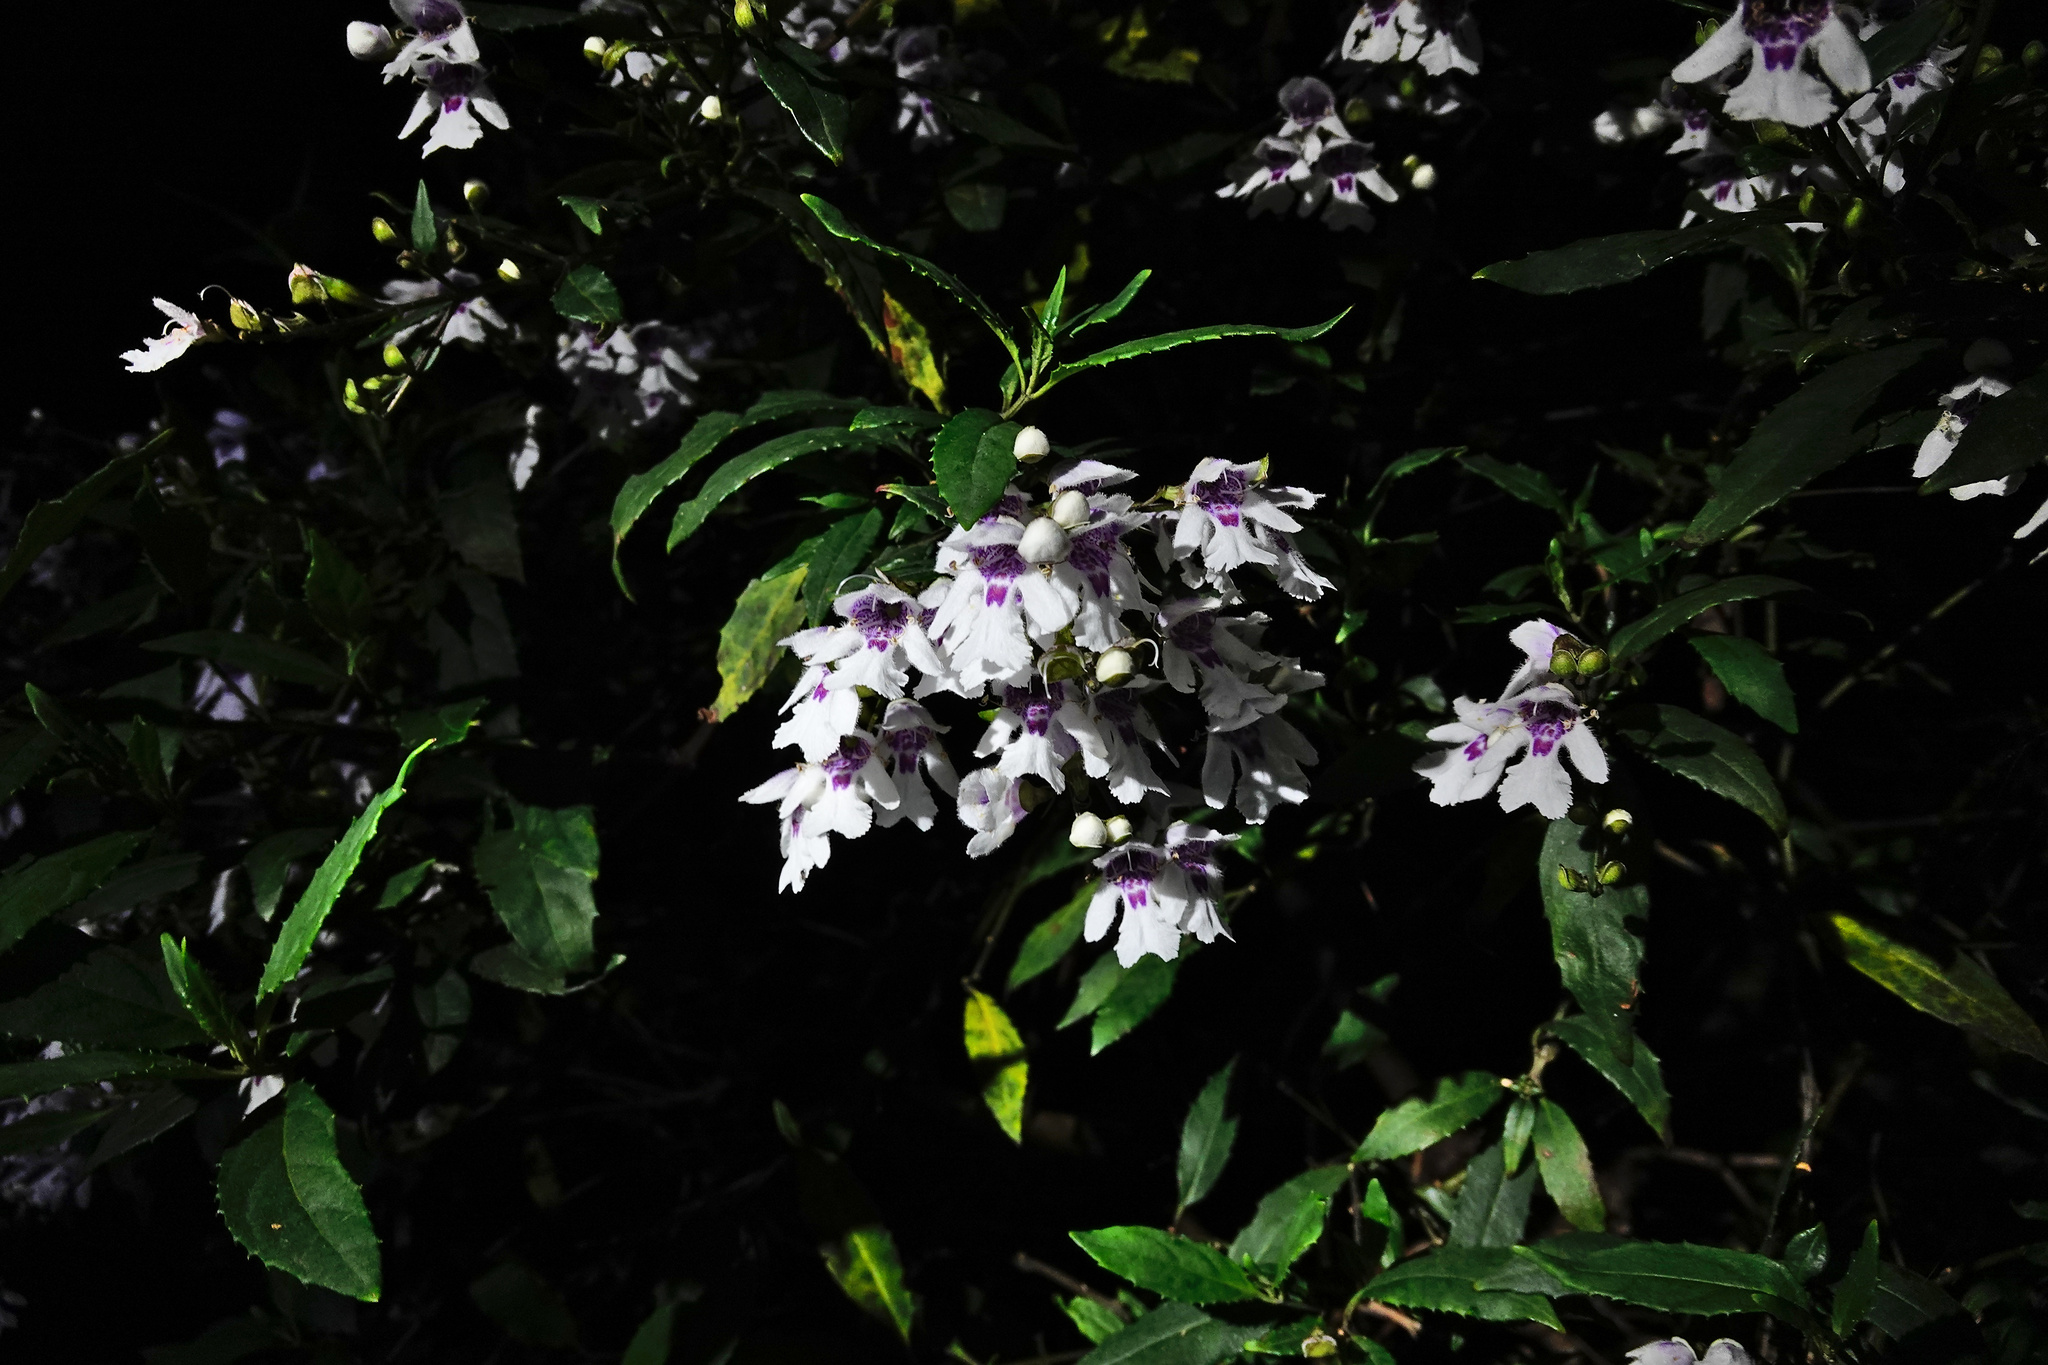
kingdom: Plantae
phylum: Tracheophyta
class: Magnoliopsida
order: Lamiales
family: Lamiaceae
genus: Prostanthera
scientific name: Prostanthera lasianthos
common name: Mountain-lilac
